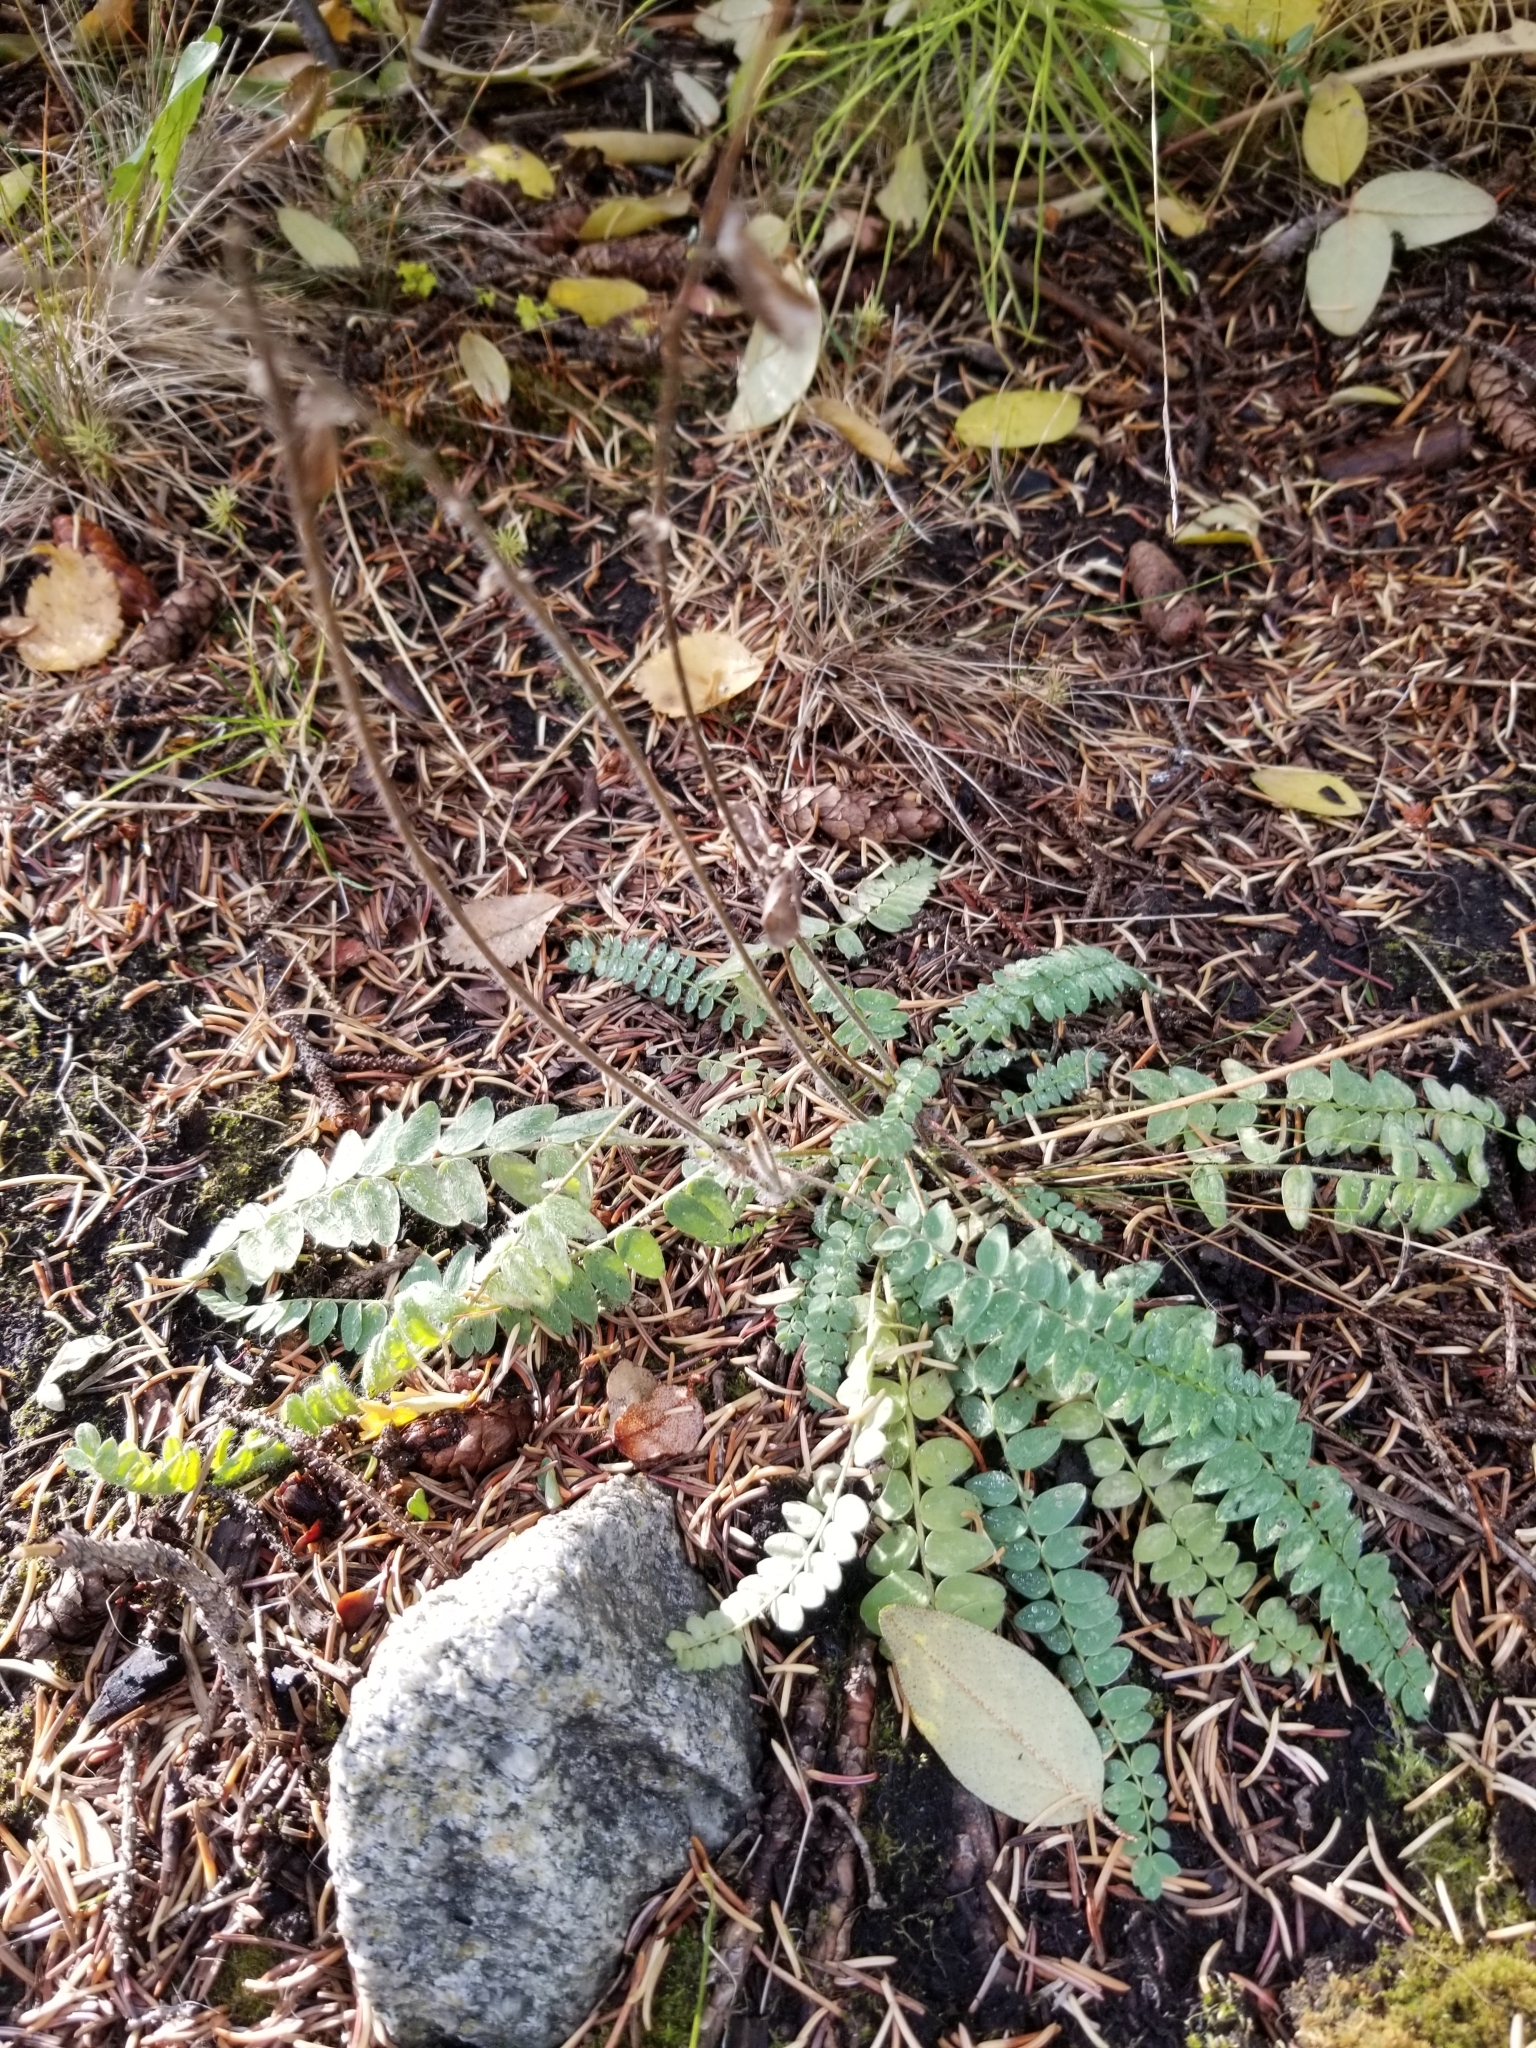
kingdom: Plantae
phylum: Tracheophyta
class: Magnoliopsida
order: Fabales
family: Fabaceae
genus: Oxytropis
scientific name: Oxytropis deflexa
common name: Stemmed oxytrope
